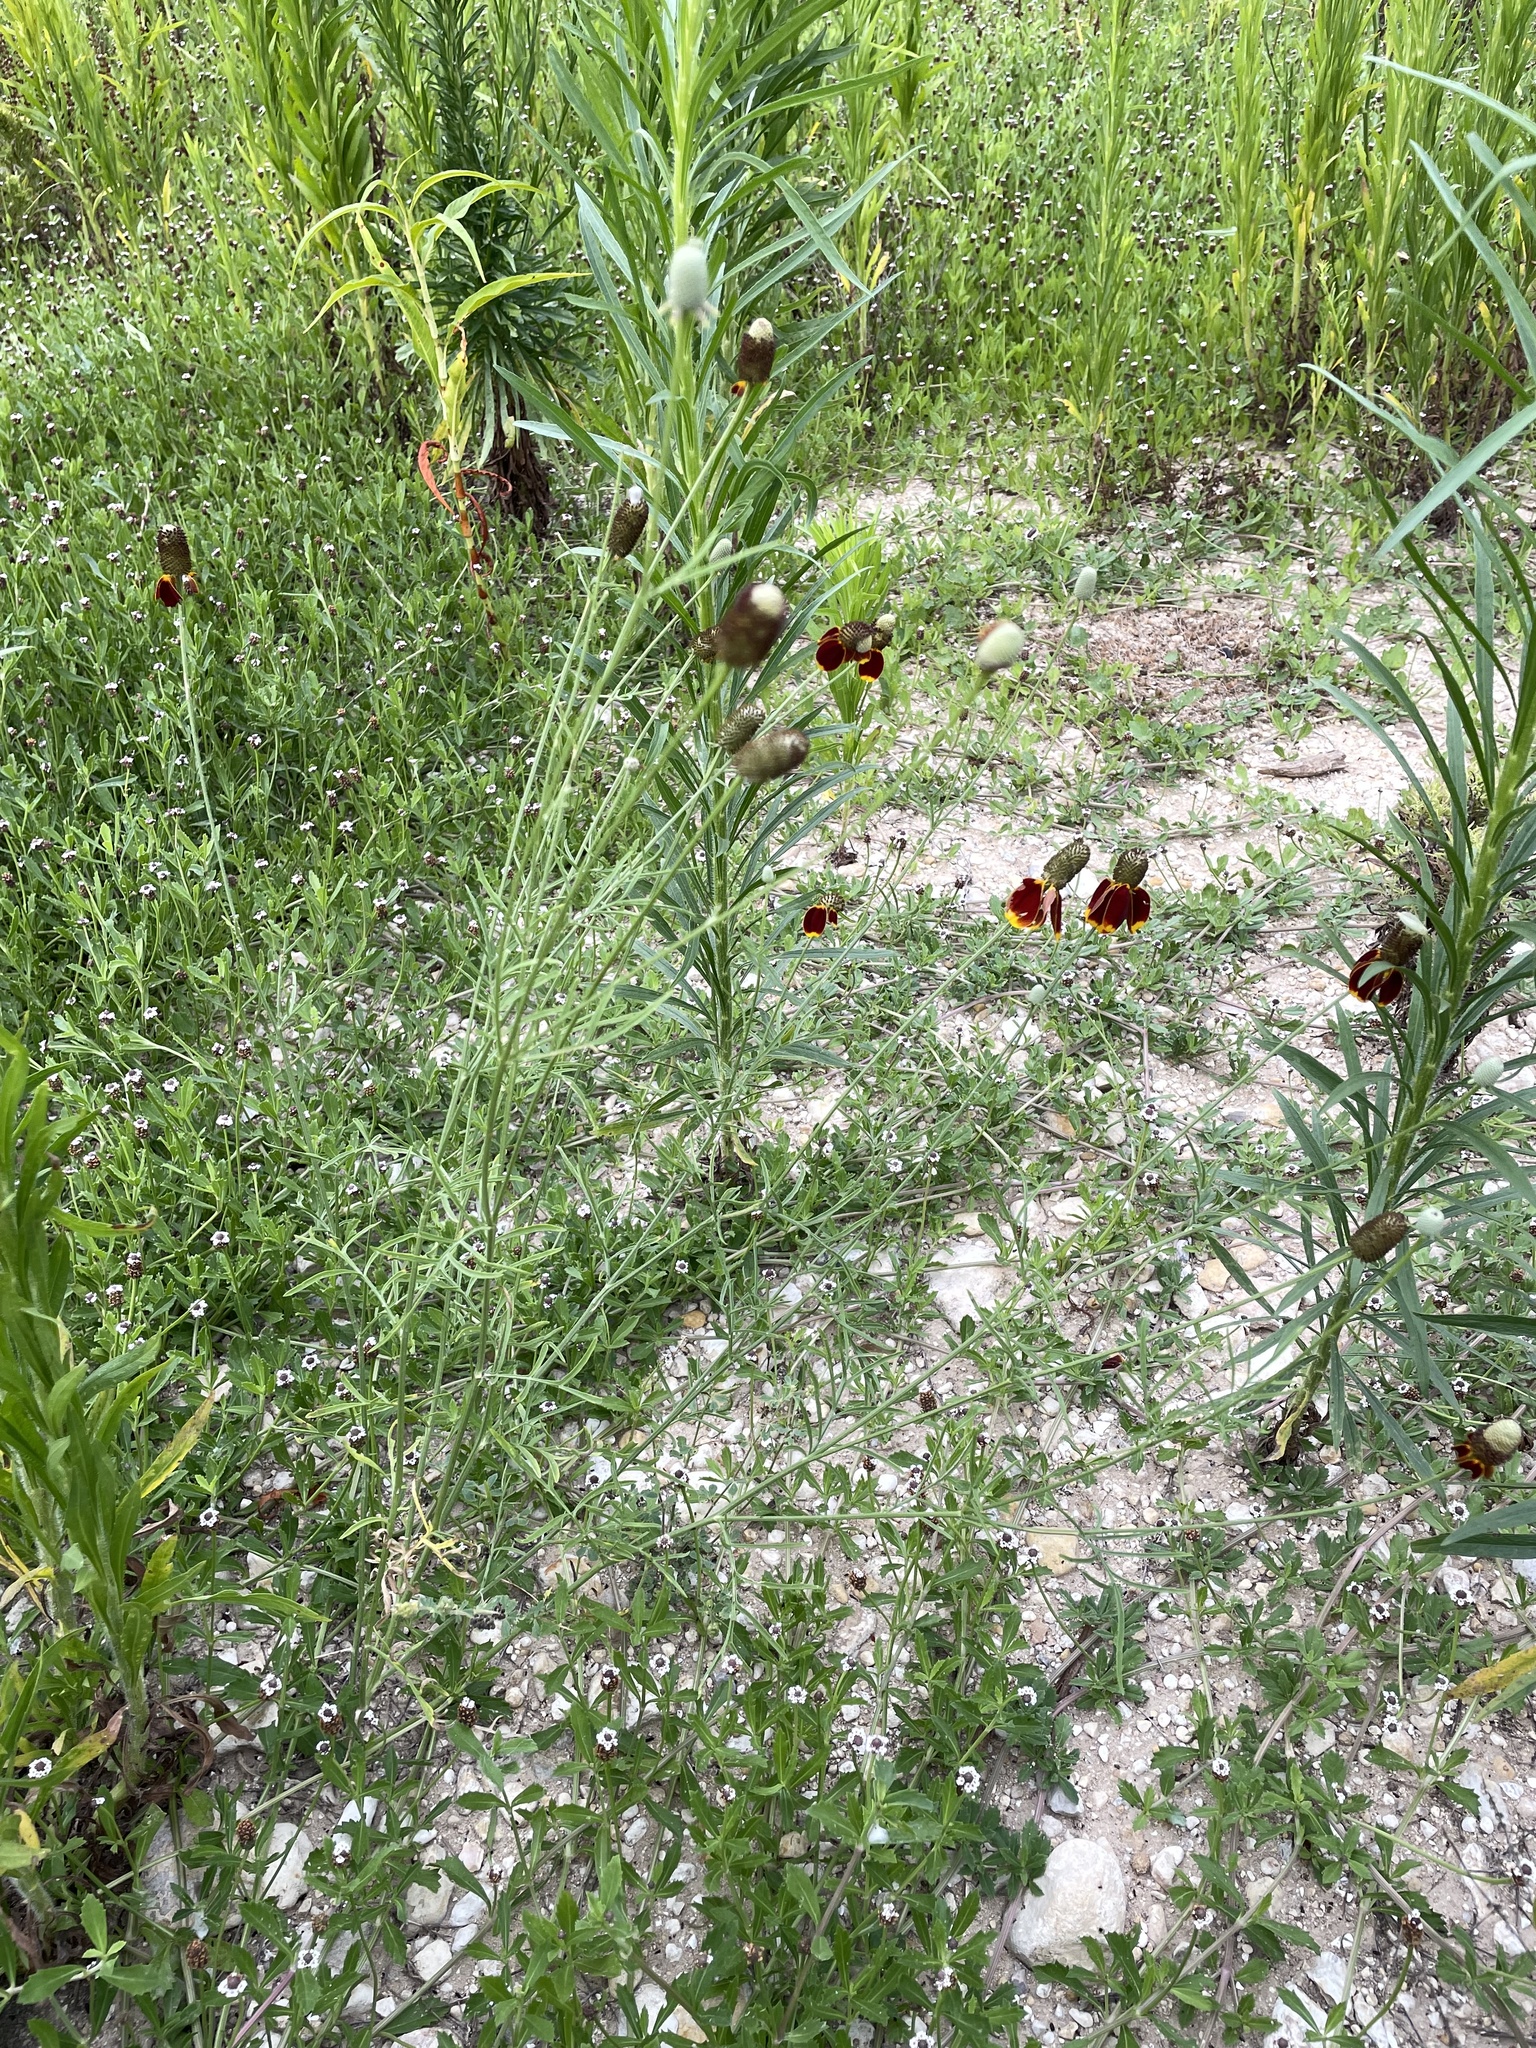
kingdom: Plantae
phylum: Tracheophyta
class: Magnoliopsida
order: Asterales
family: Asteraceae
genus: Ratibida
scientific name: Ratibida columnifera
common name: Prairie coneflower
